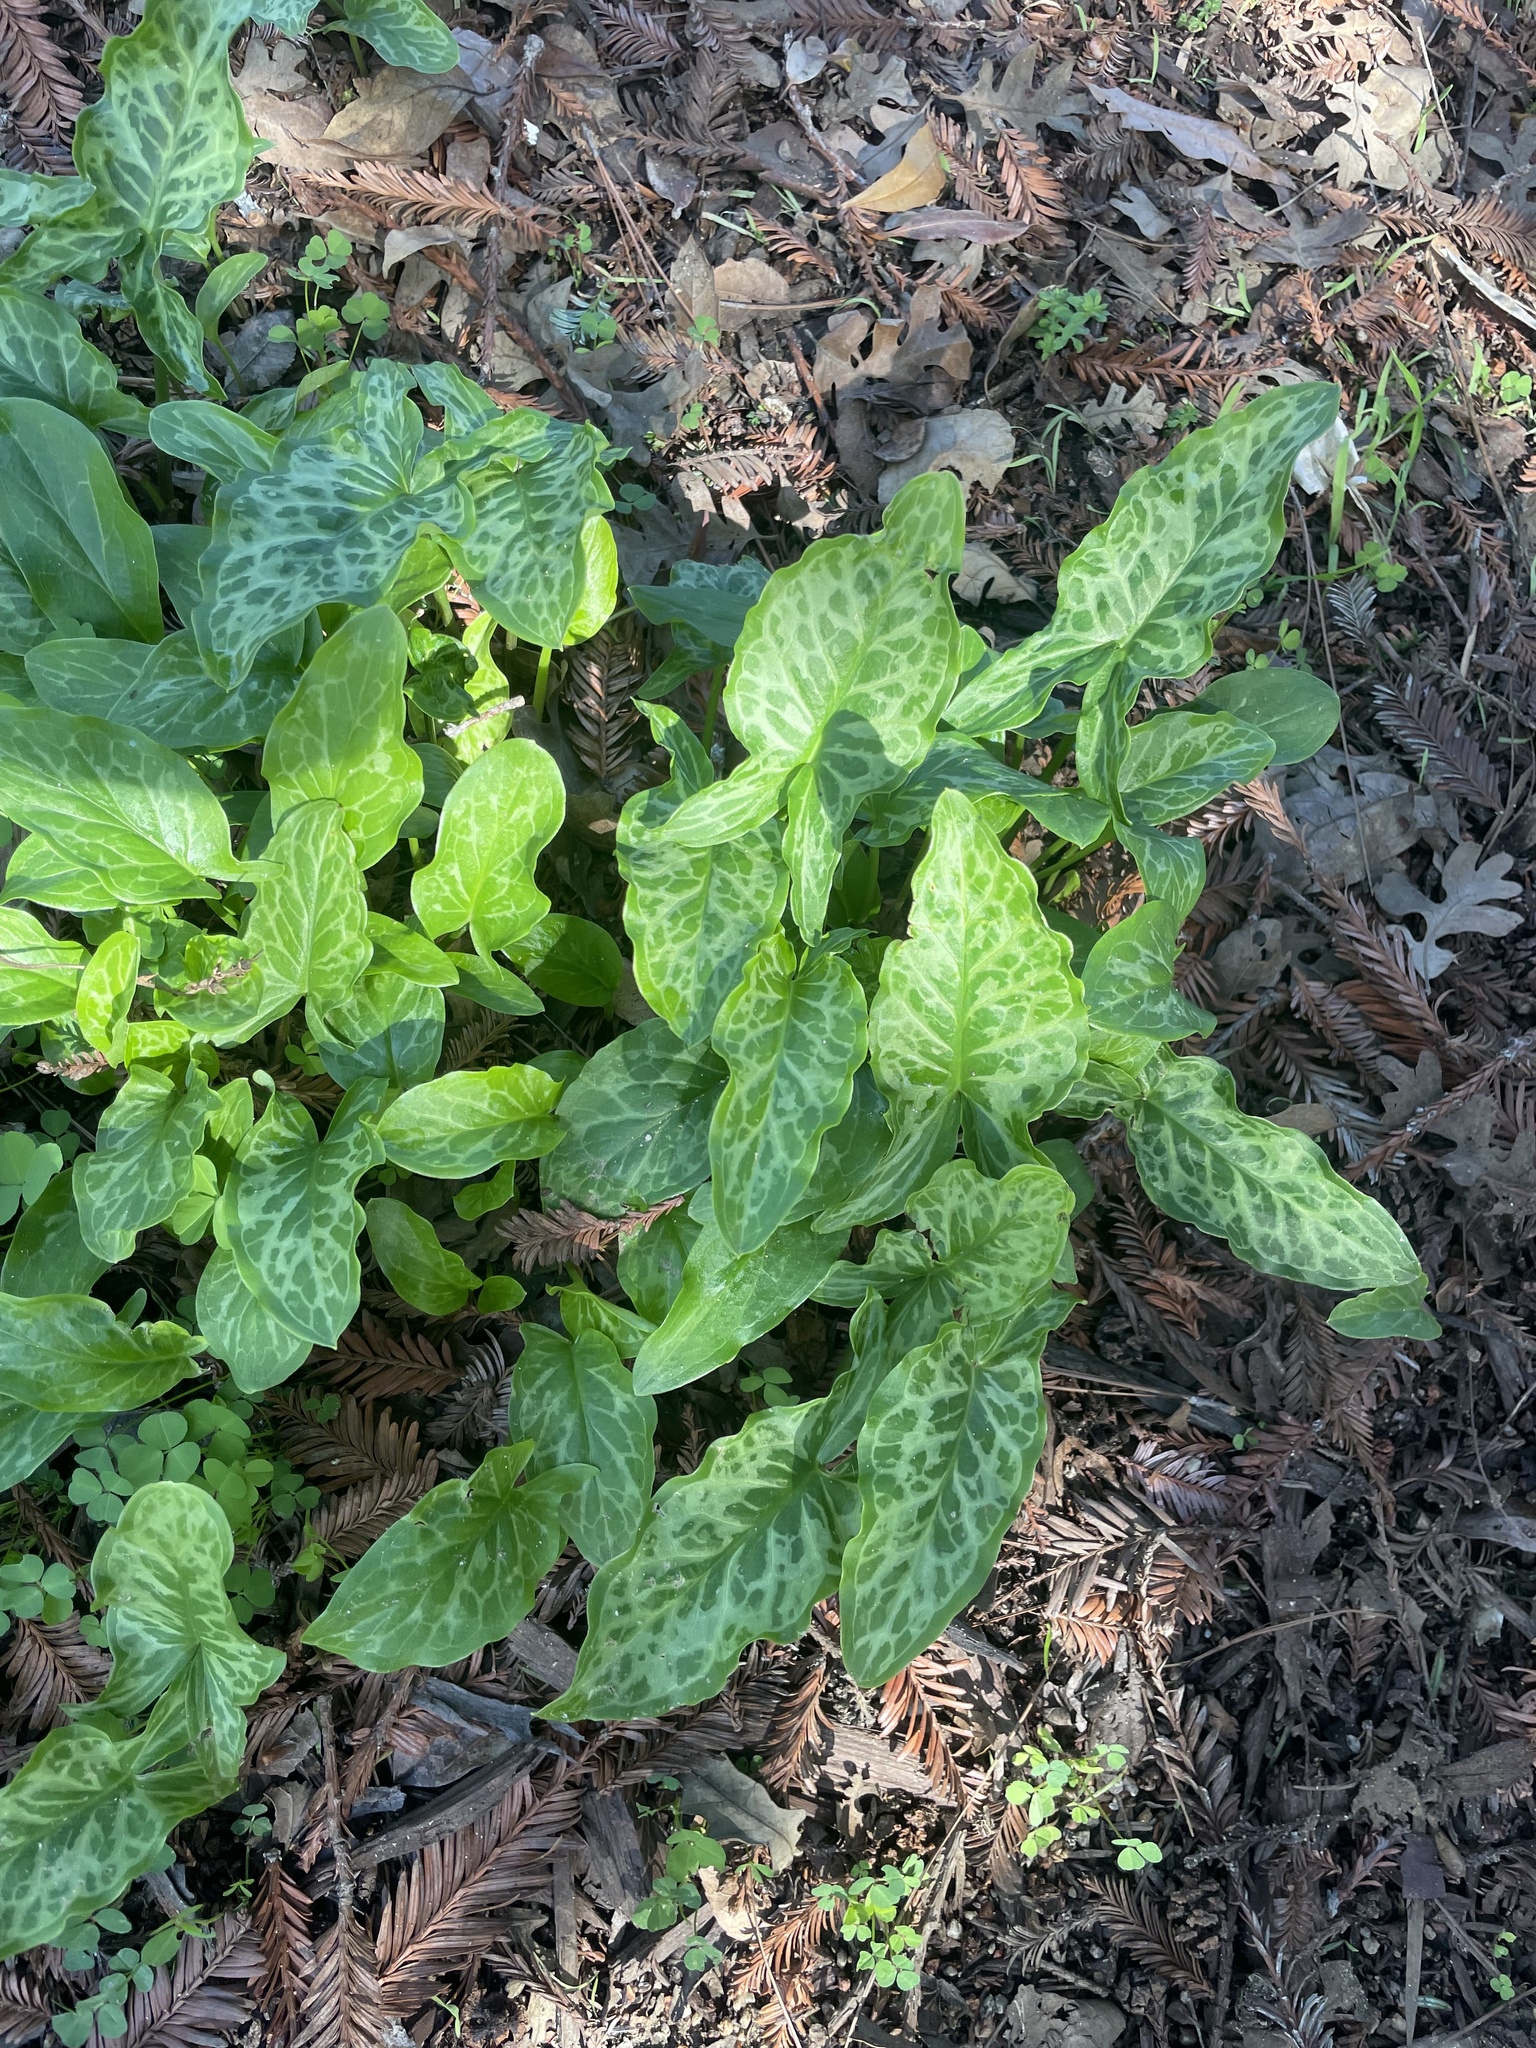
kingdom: Plantae
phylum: Tracheophyta
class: Liliopsida
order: Alismatales
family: Araceae
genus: Arum
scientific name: Arum italicum
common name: Italian lords-and-ladies
